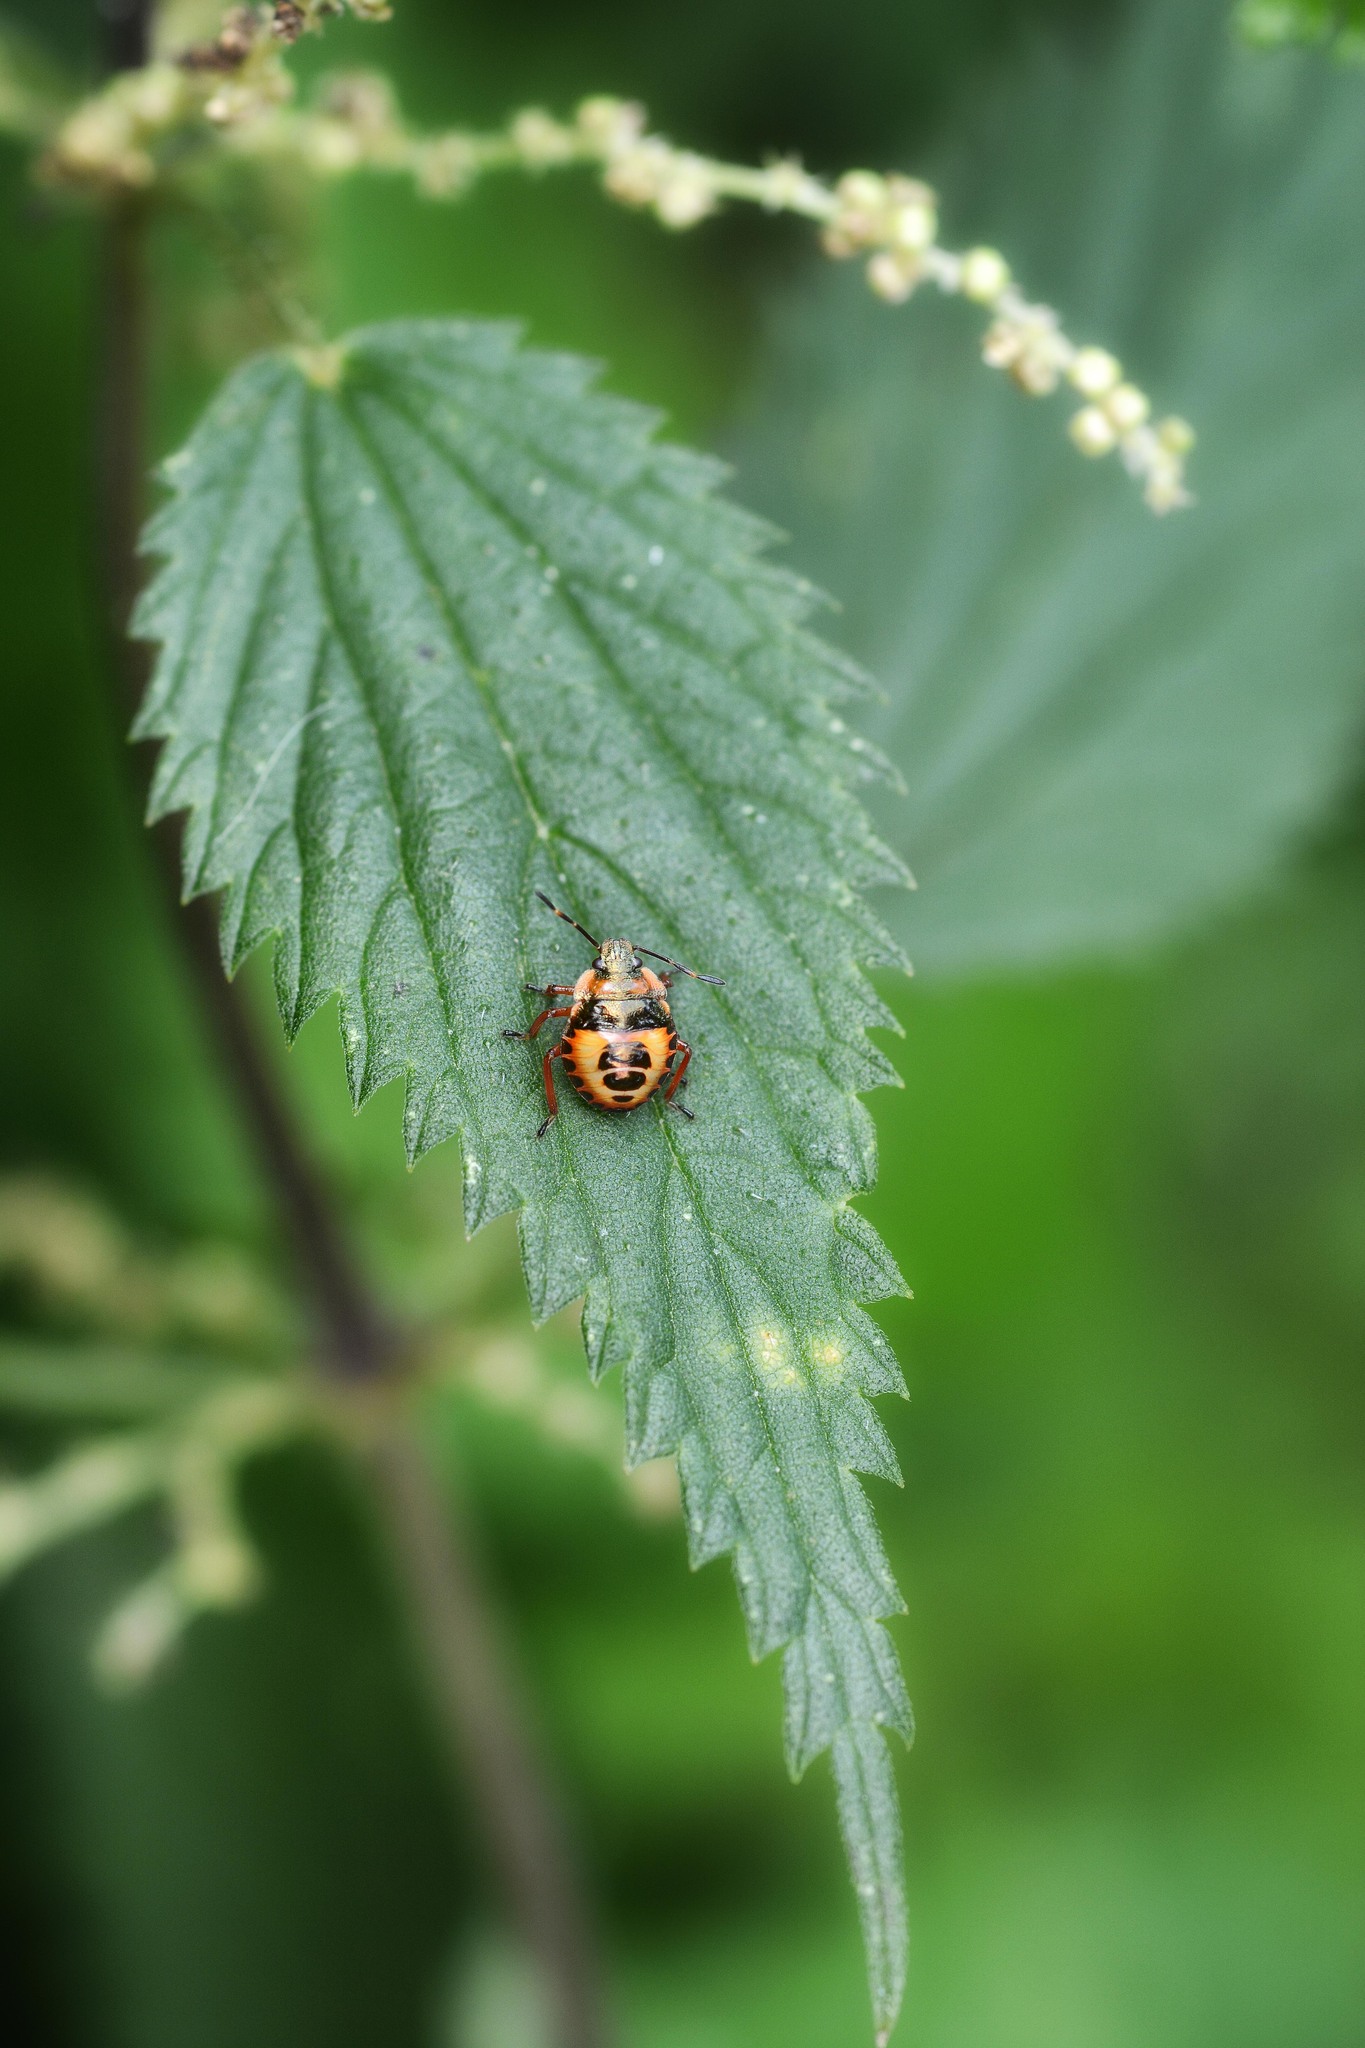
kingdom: Animalia
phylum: Arthropoda
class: Insecta
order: Hemiptera
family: Pentatomidae
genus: Troilus
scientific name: Troilus luridus
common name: Bronze shieldbug
